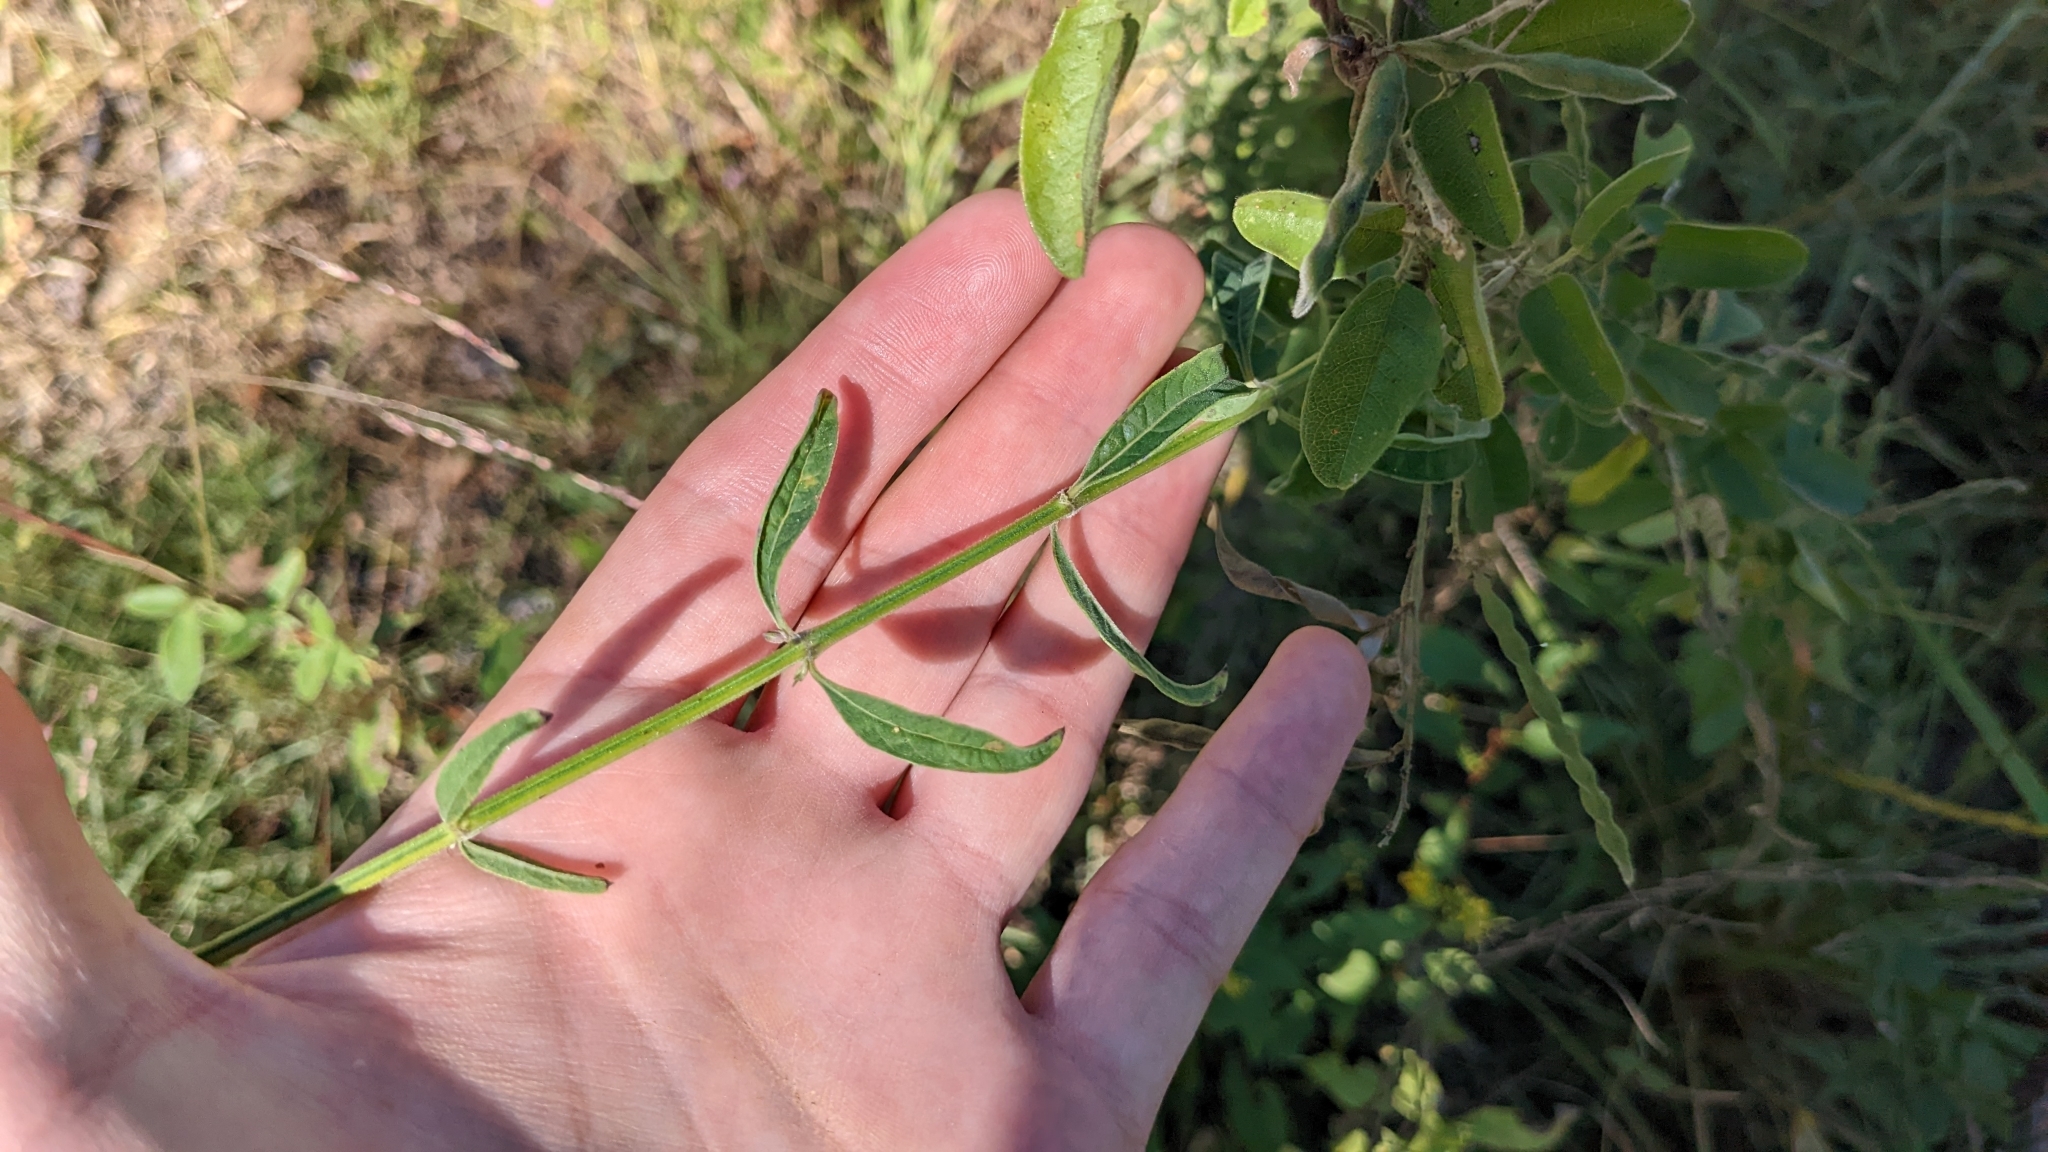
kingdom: Plantae
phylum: Tracheophyta
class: Magnoliopsida
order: Lamiales
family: Lamiaceae
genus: Salvia
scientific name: Salvia azurea
